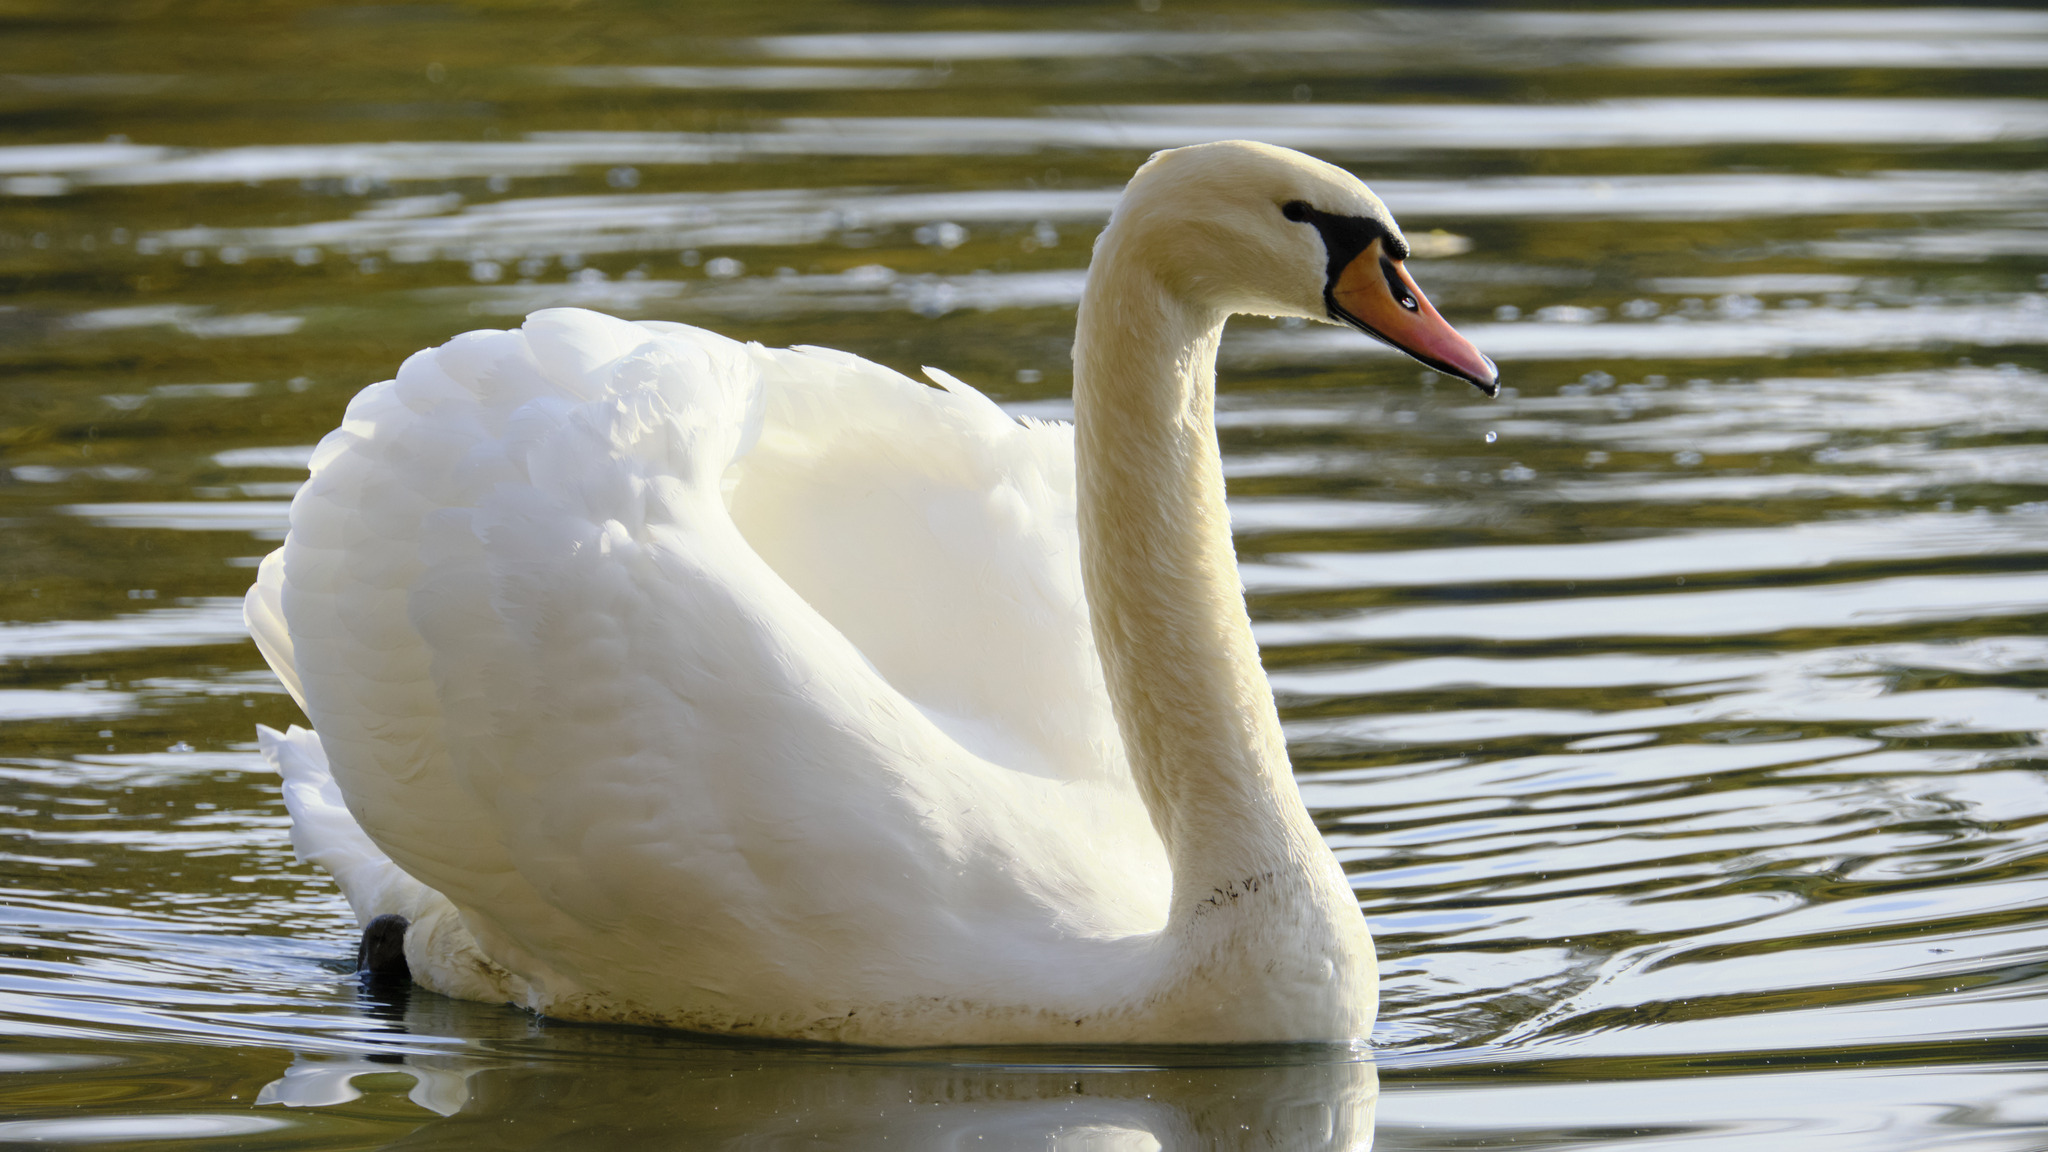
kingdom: Animalia
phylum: Chordata
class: Aves
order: Anseriformes
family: Anatidae
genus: Cygnus
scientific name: Cygnus olor
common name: Mute swan
